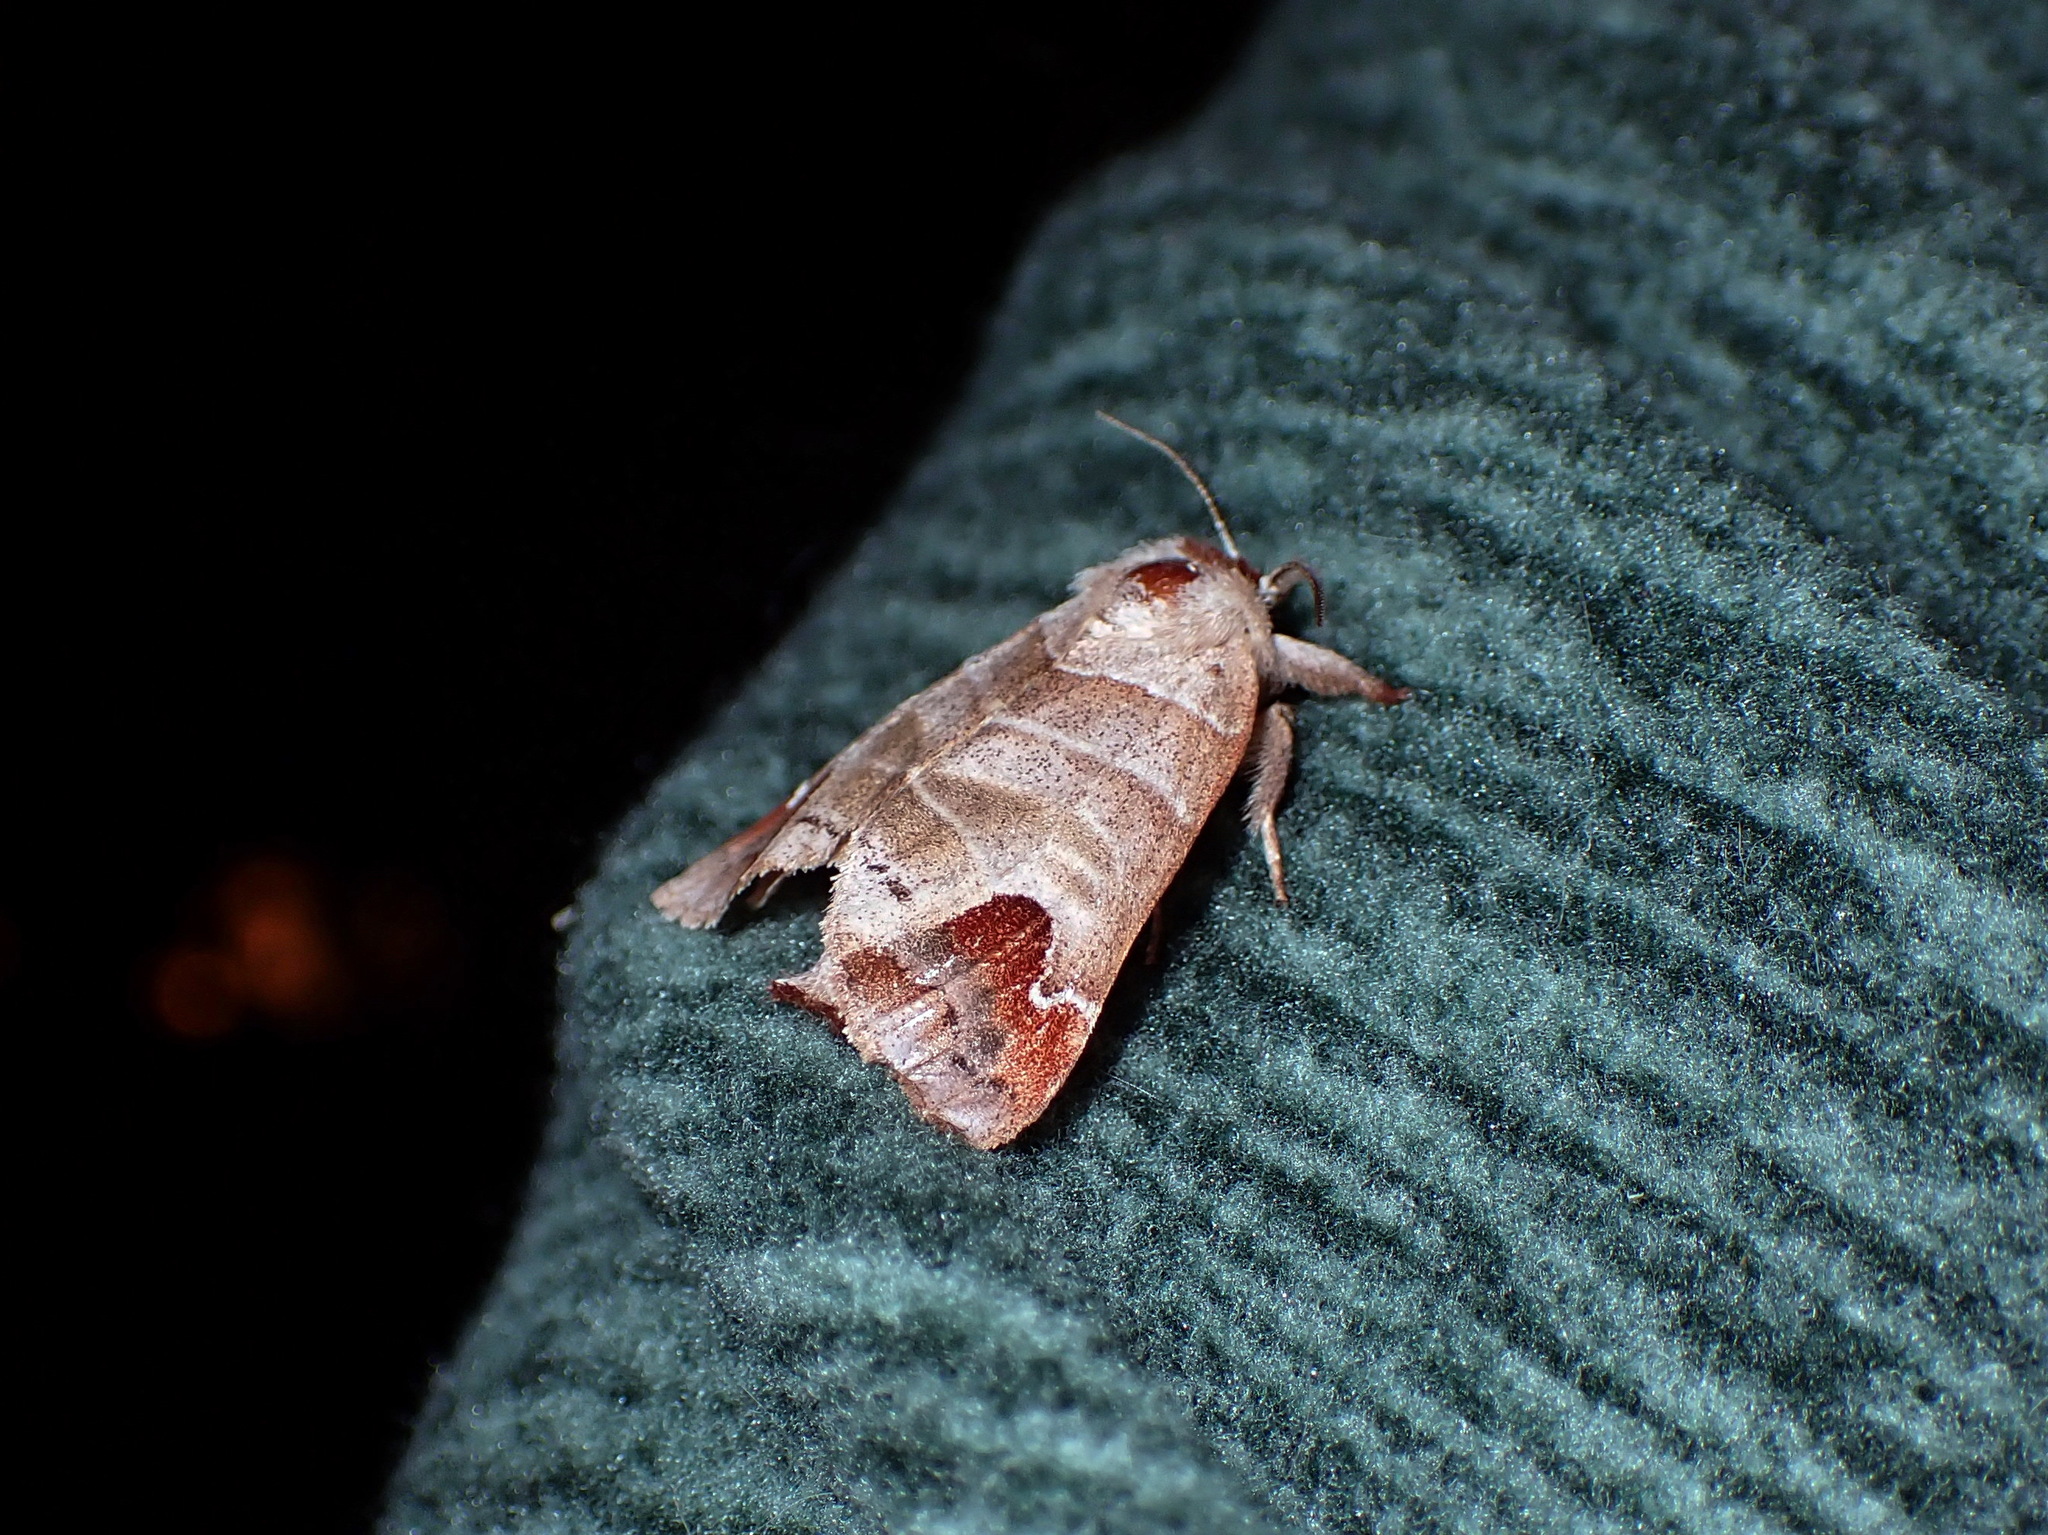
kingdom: Animalia
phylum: Arthropoda
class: Insecta
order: Lepidoptera
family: Notodontidae
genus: Clostera
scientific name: Clostera albosigma
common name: Sigmoid prominent
